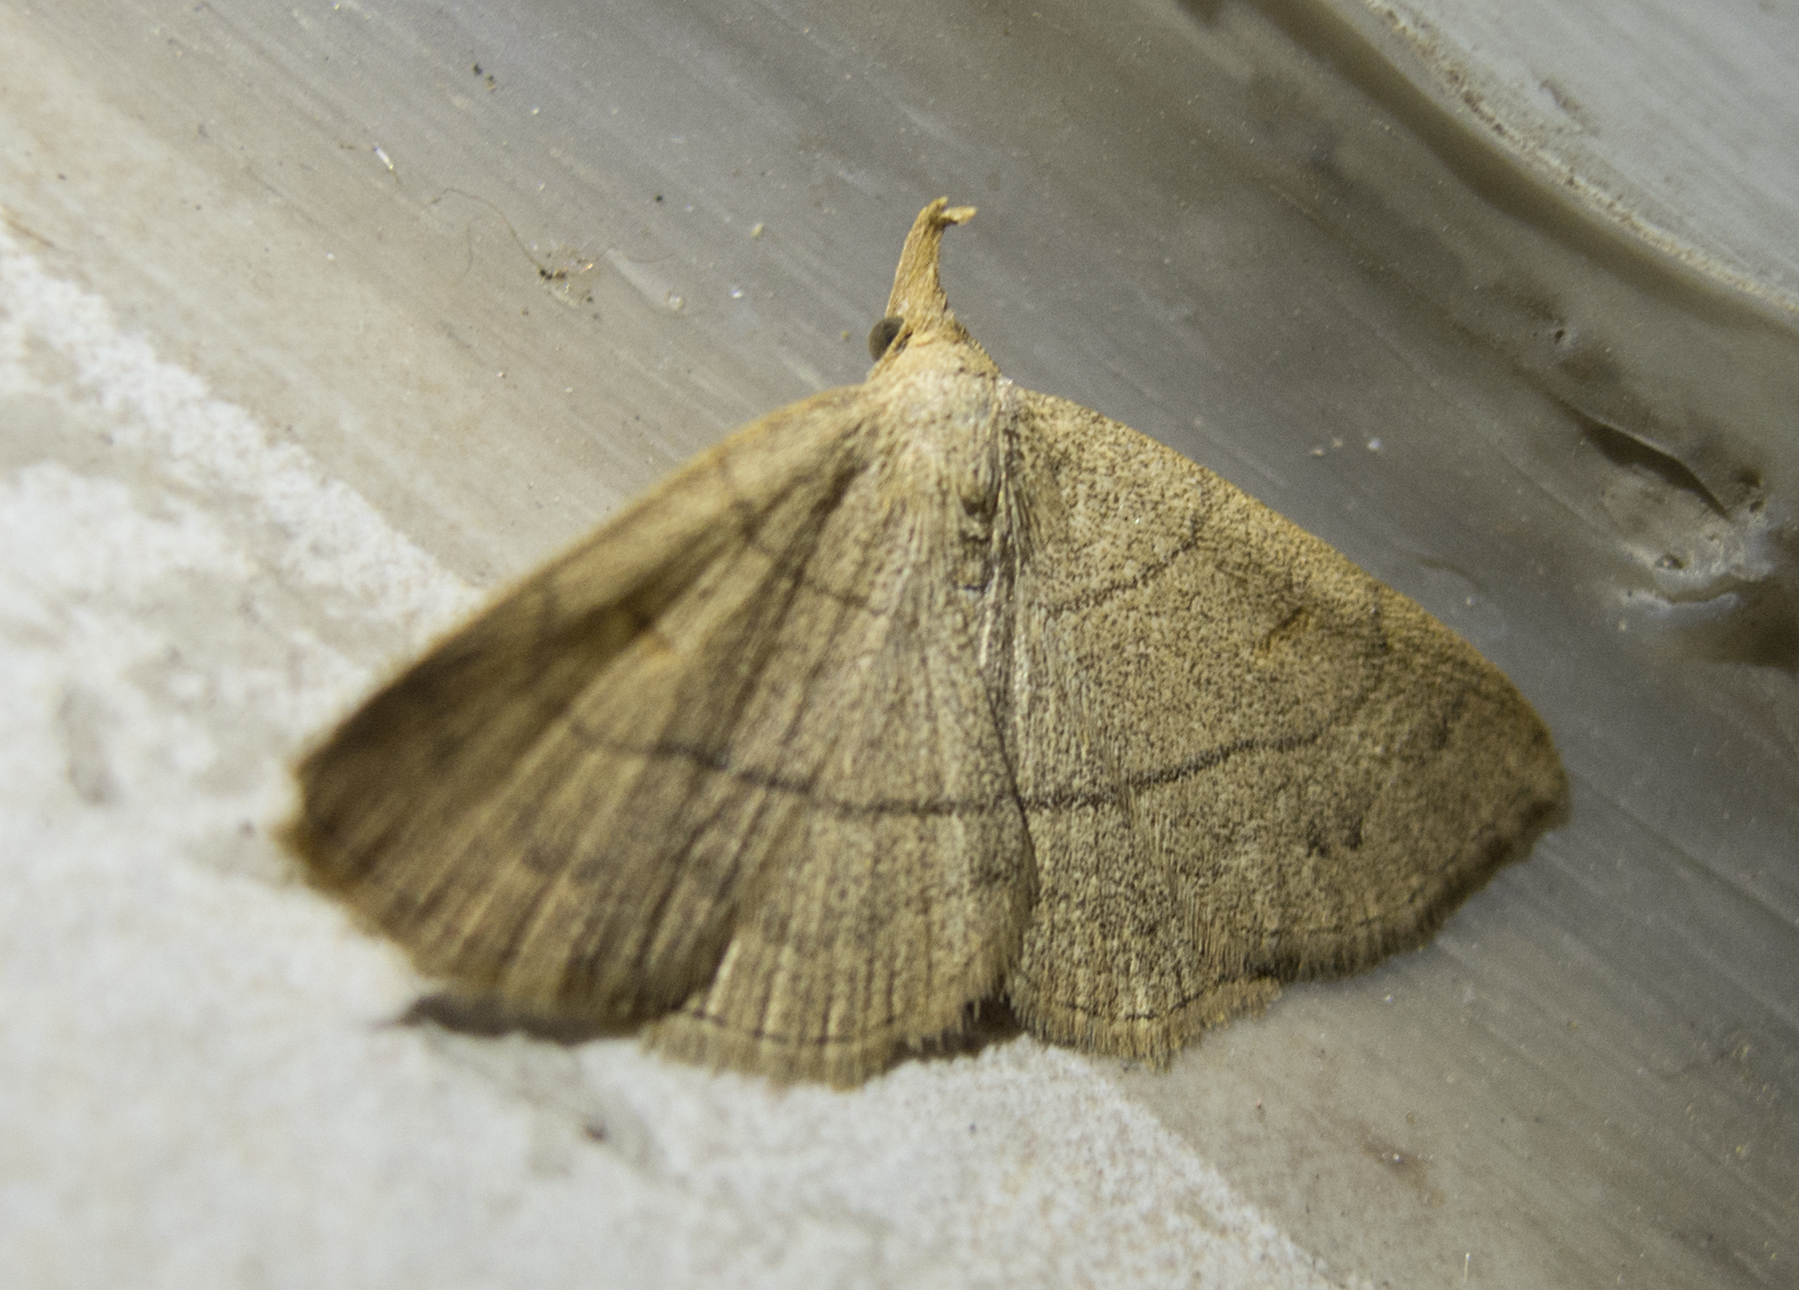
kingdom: Animalia
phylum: Arthropoda
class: Insecta
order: Lepidoptera
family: Erebidae
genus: Paracolax
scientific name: Paracolax tristalis
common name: Clay fan-foot
